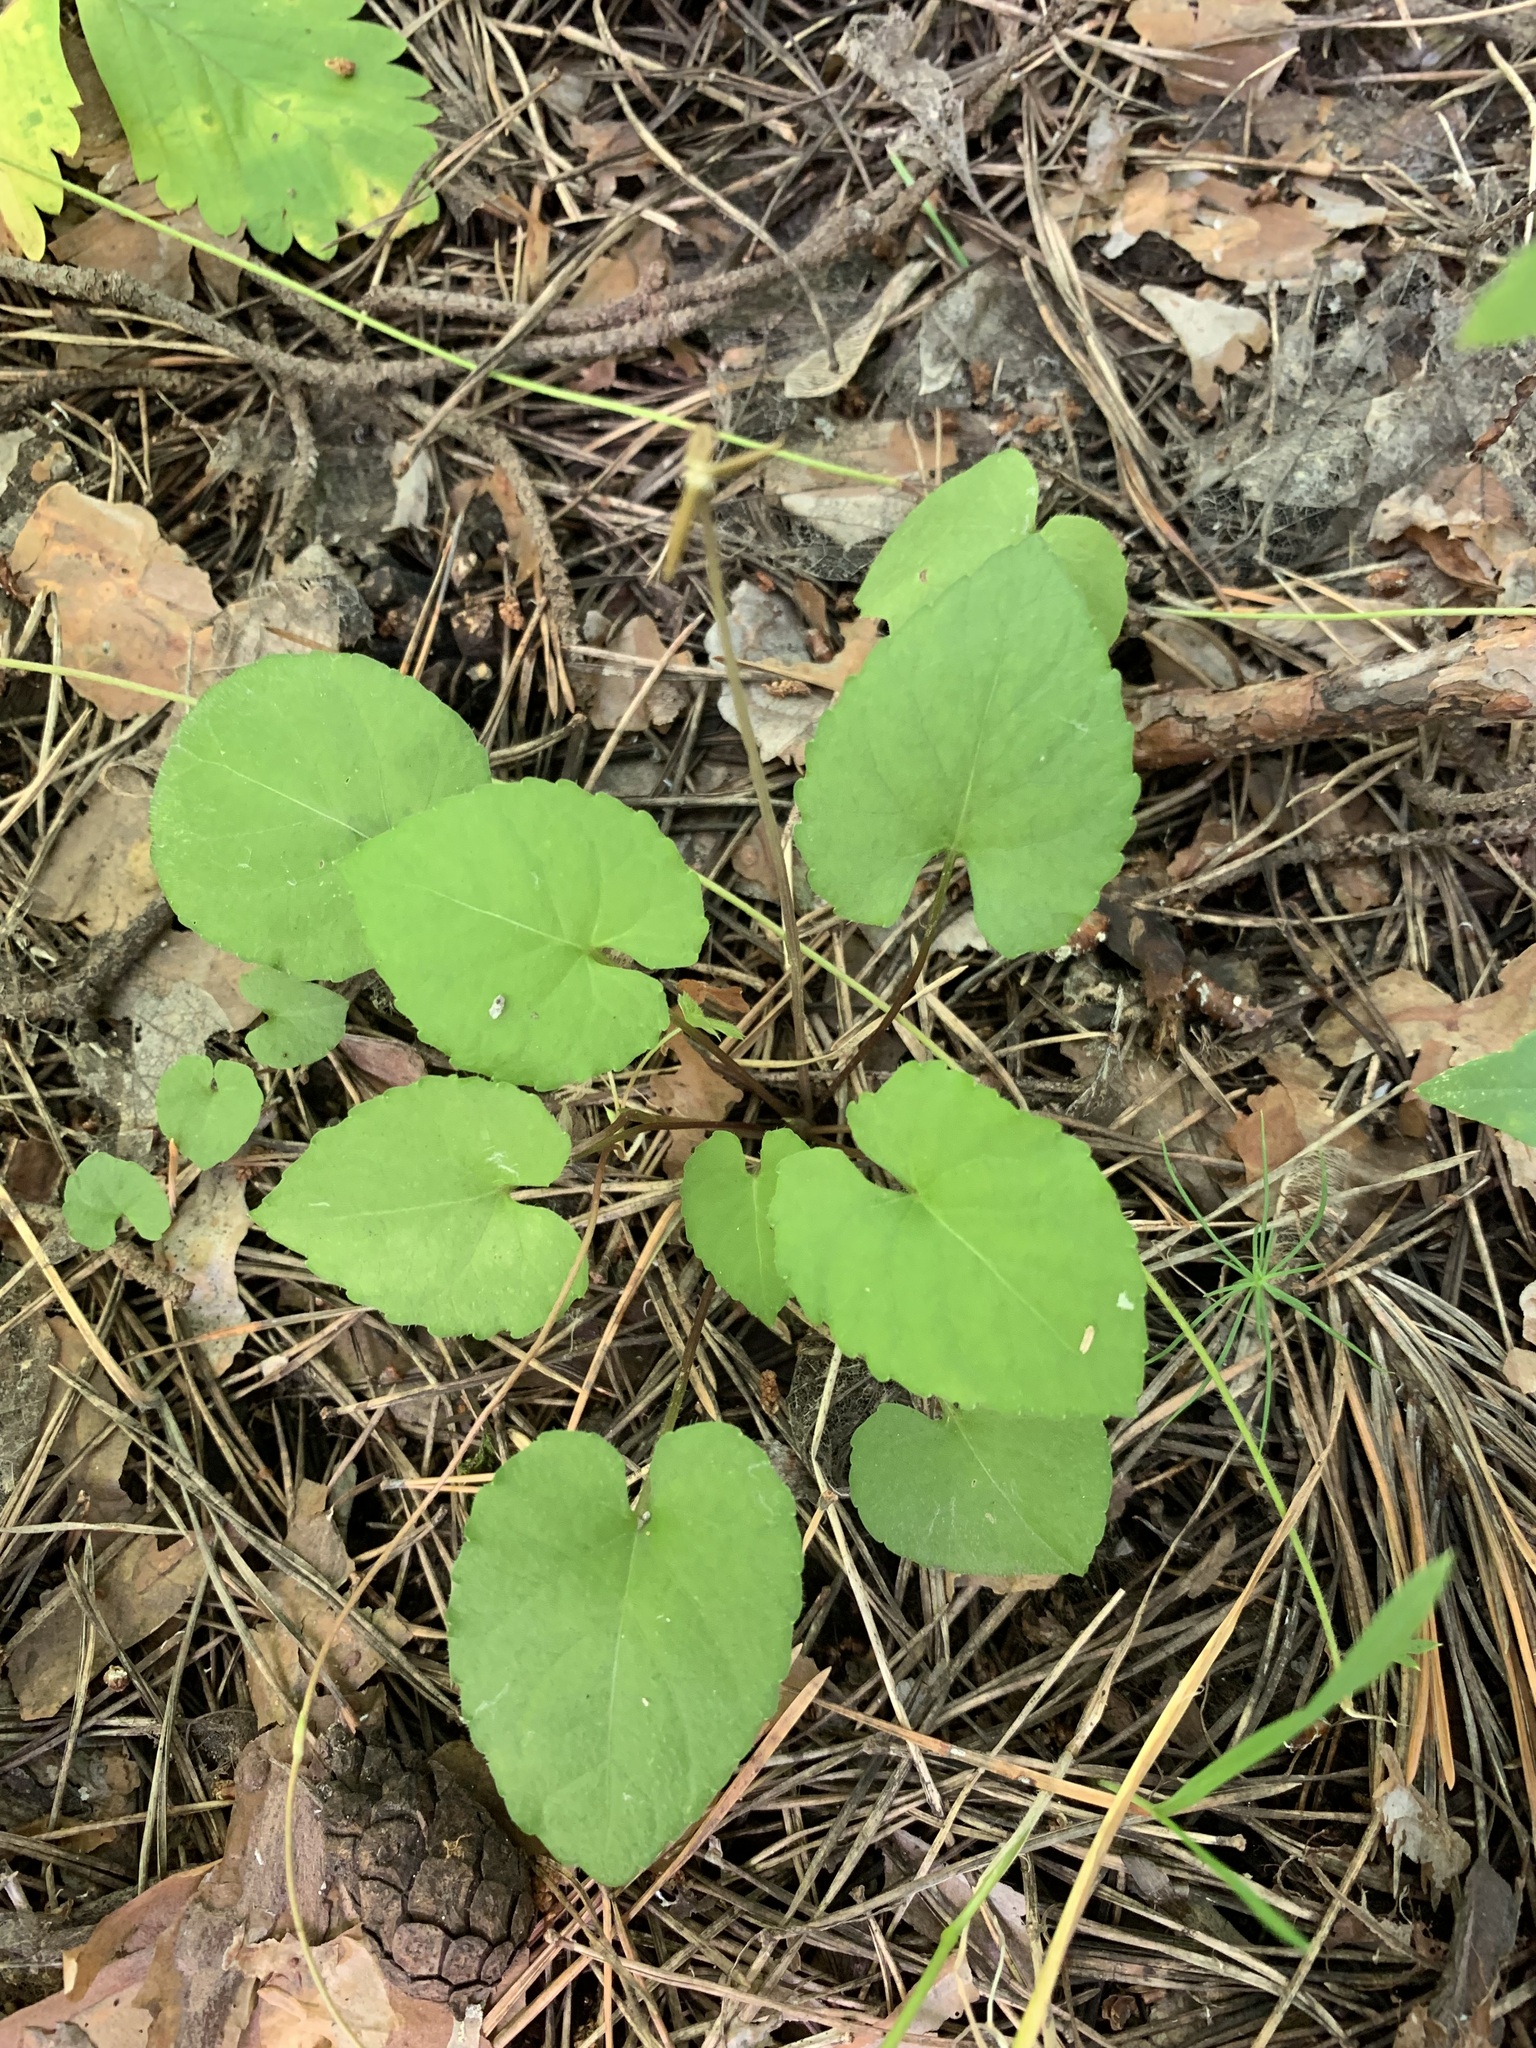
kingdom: Plantae
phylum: Tracheophyta
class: Magnoliopsida
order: Malpighiales
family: Violaceae
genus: Viola
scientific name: Viola selkirkii
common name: Selkirk's violet
